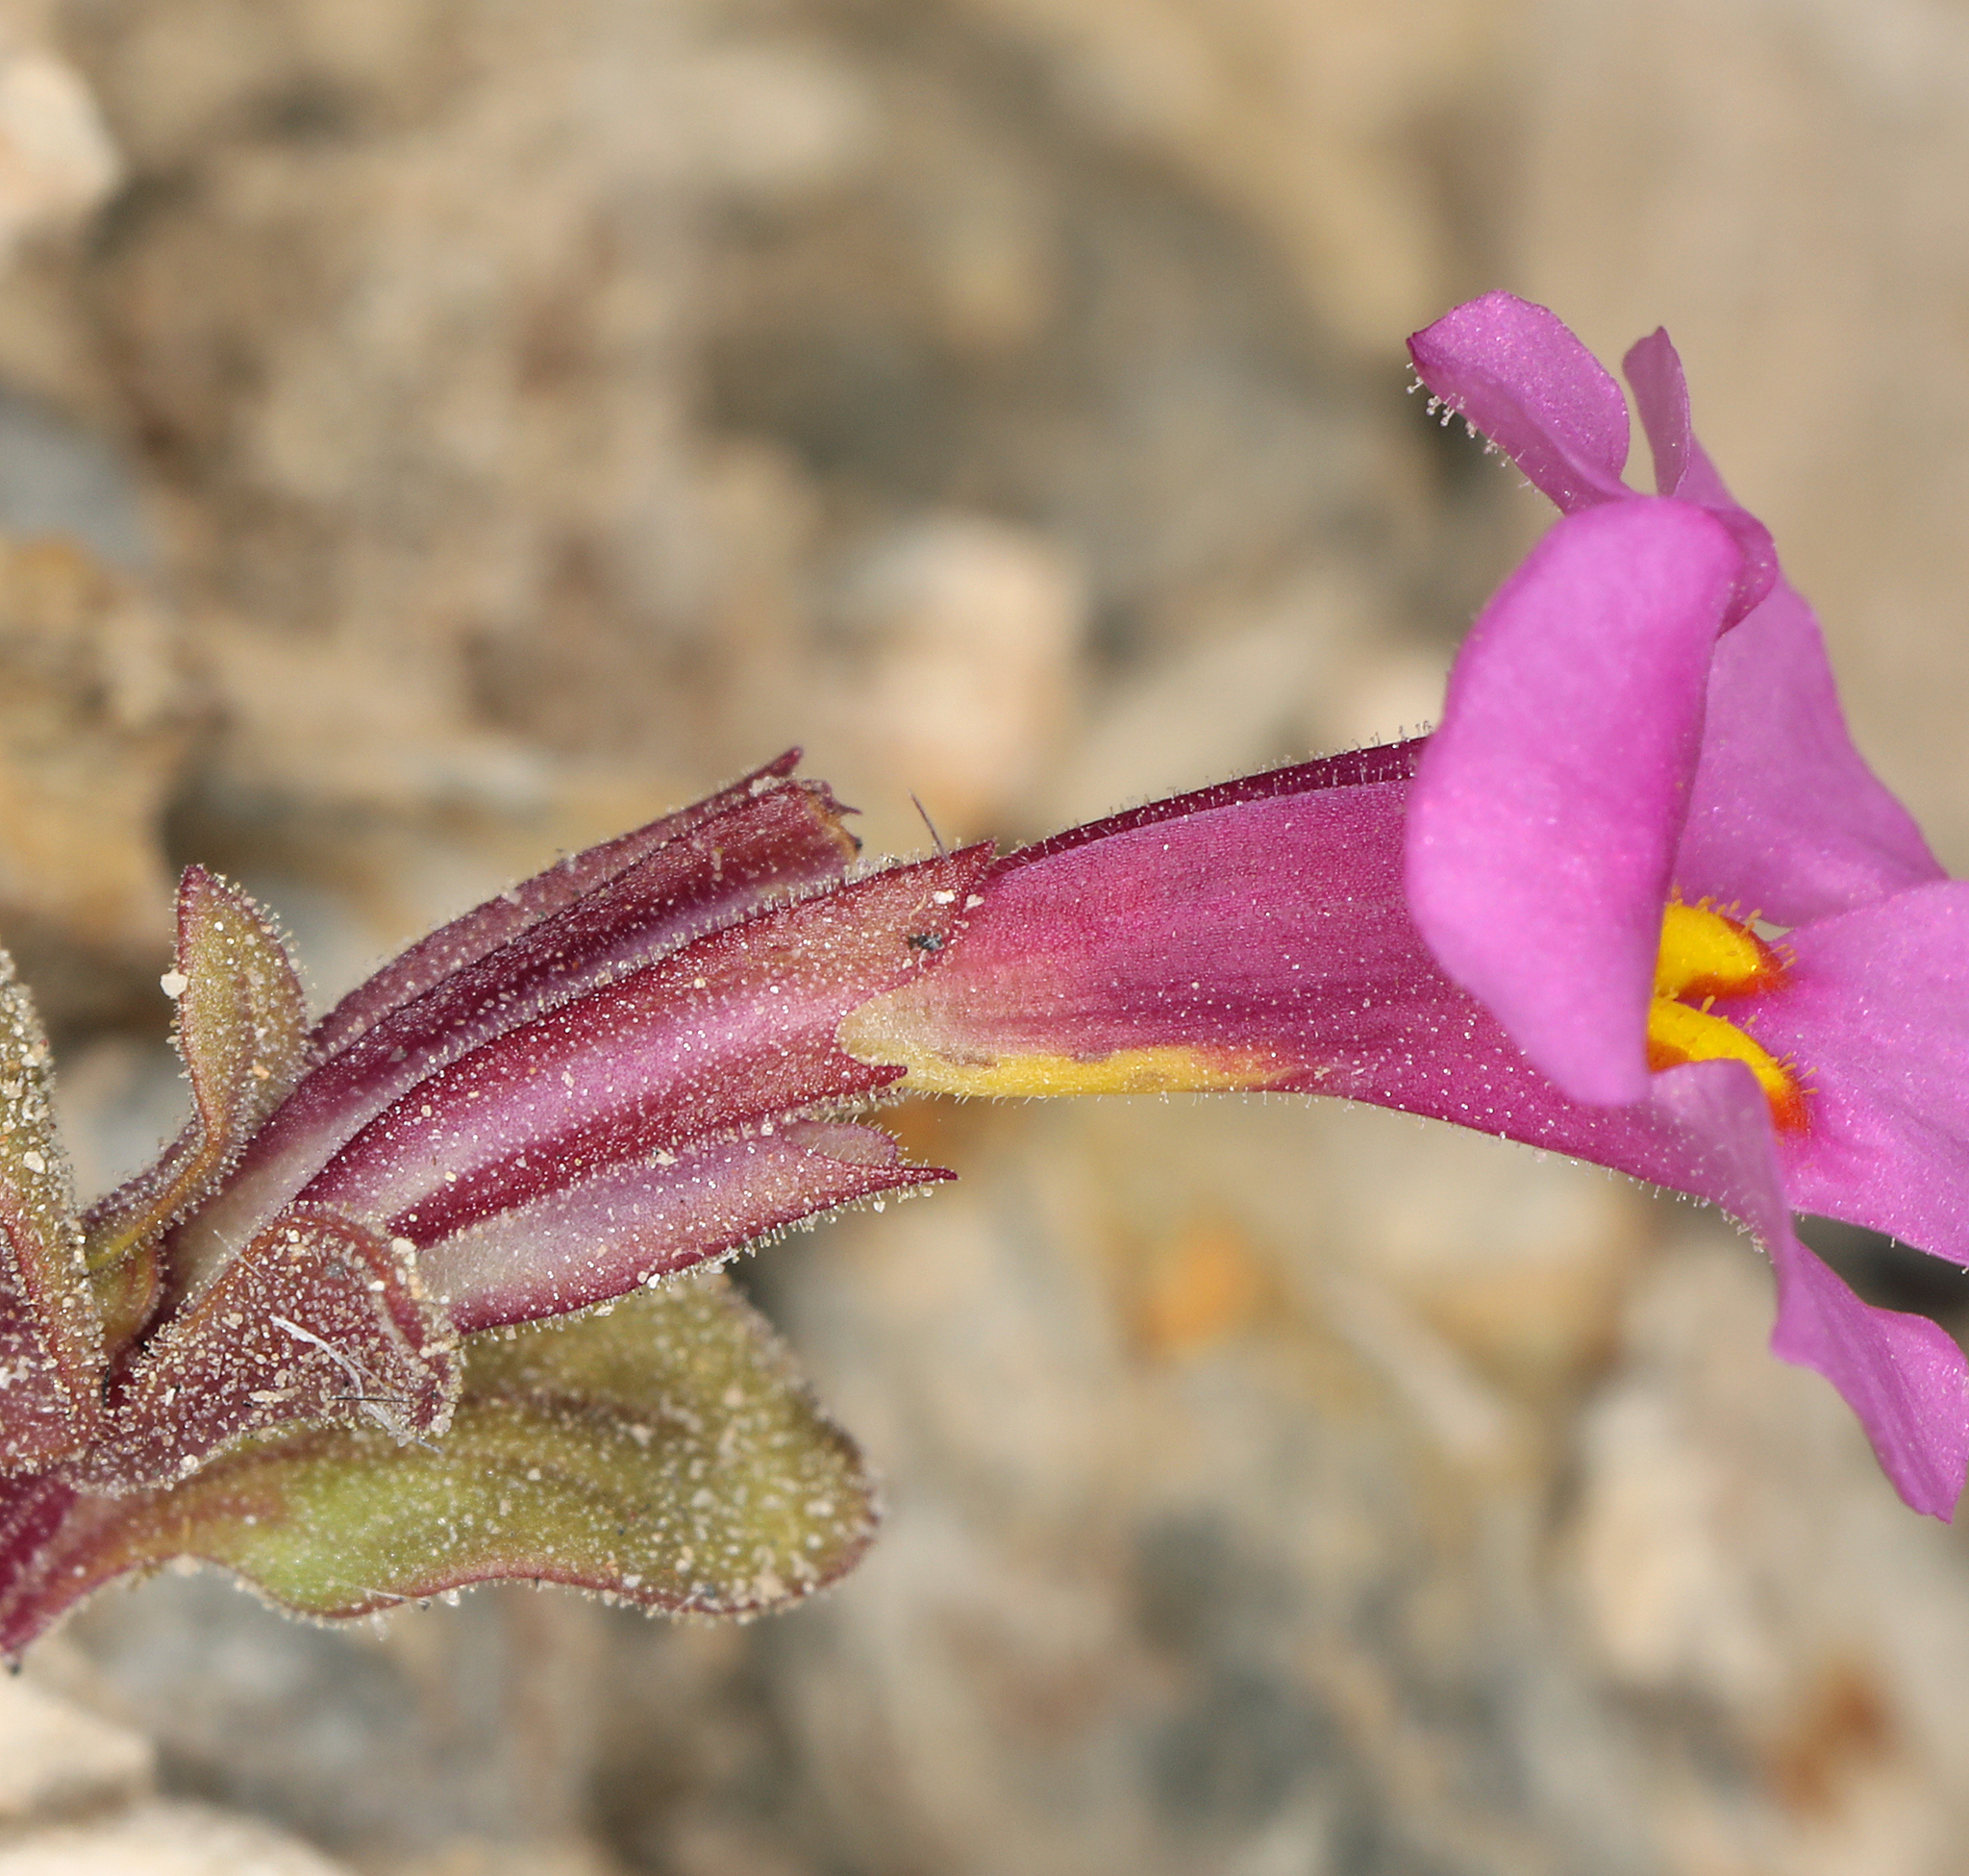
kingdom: Plantae
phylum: Tracheophyta
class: Magnoliopsida
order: Lamiales
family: Phrymaceae
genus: Diplacus
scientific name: Diplacus parryi
